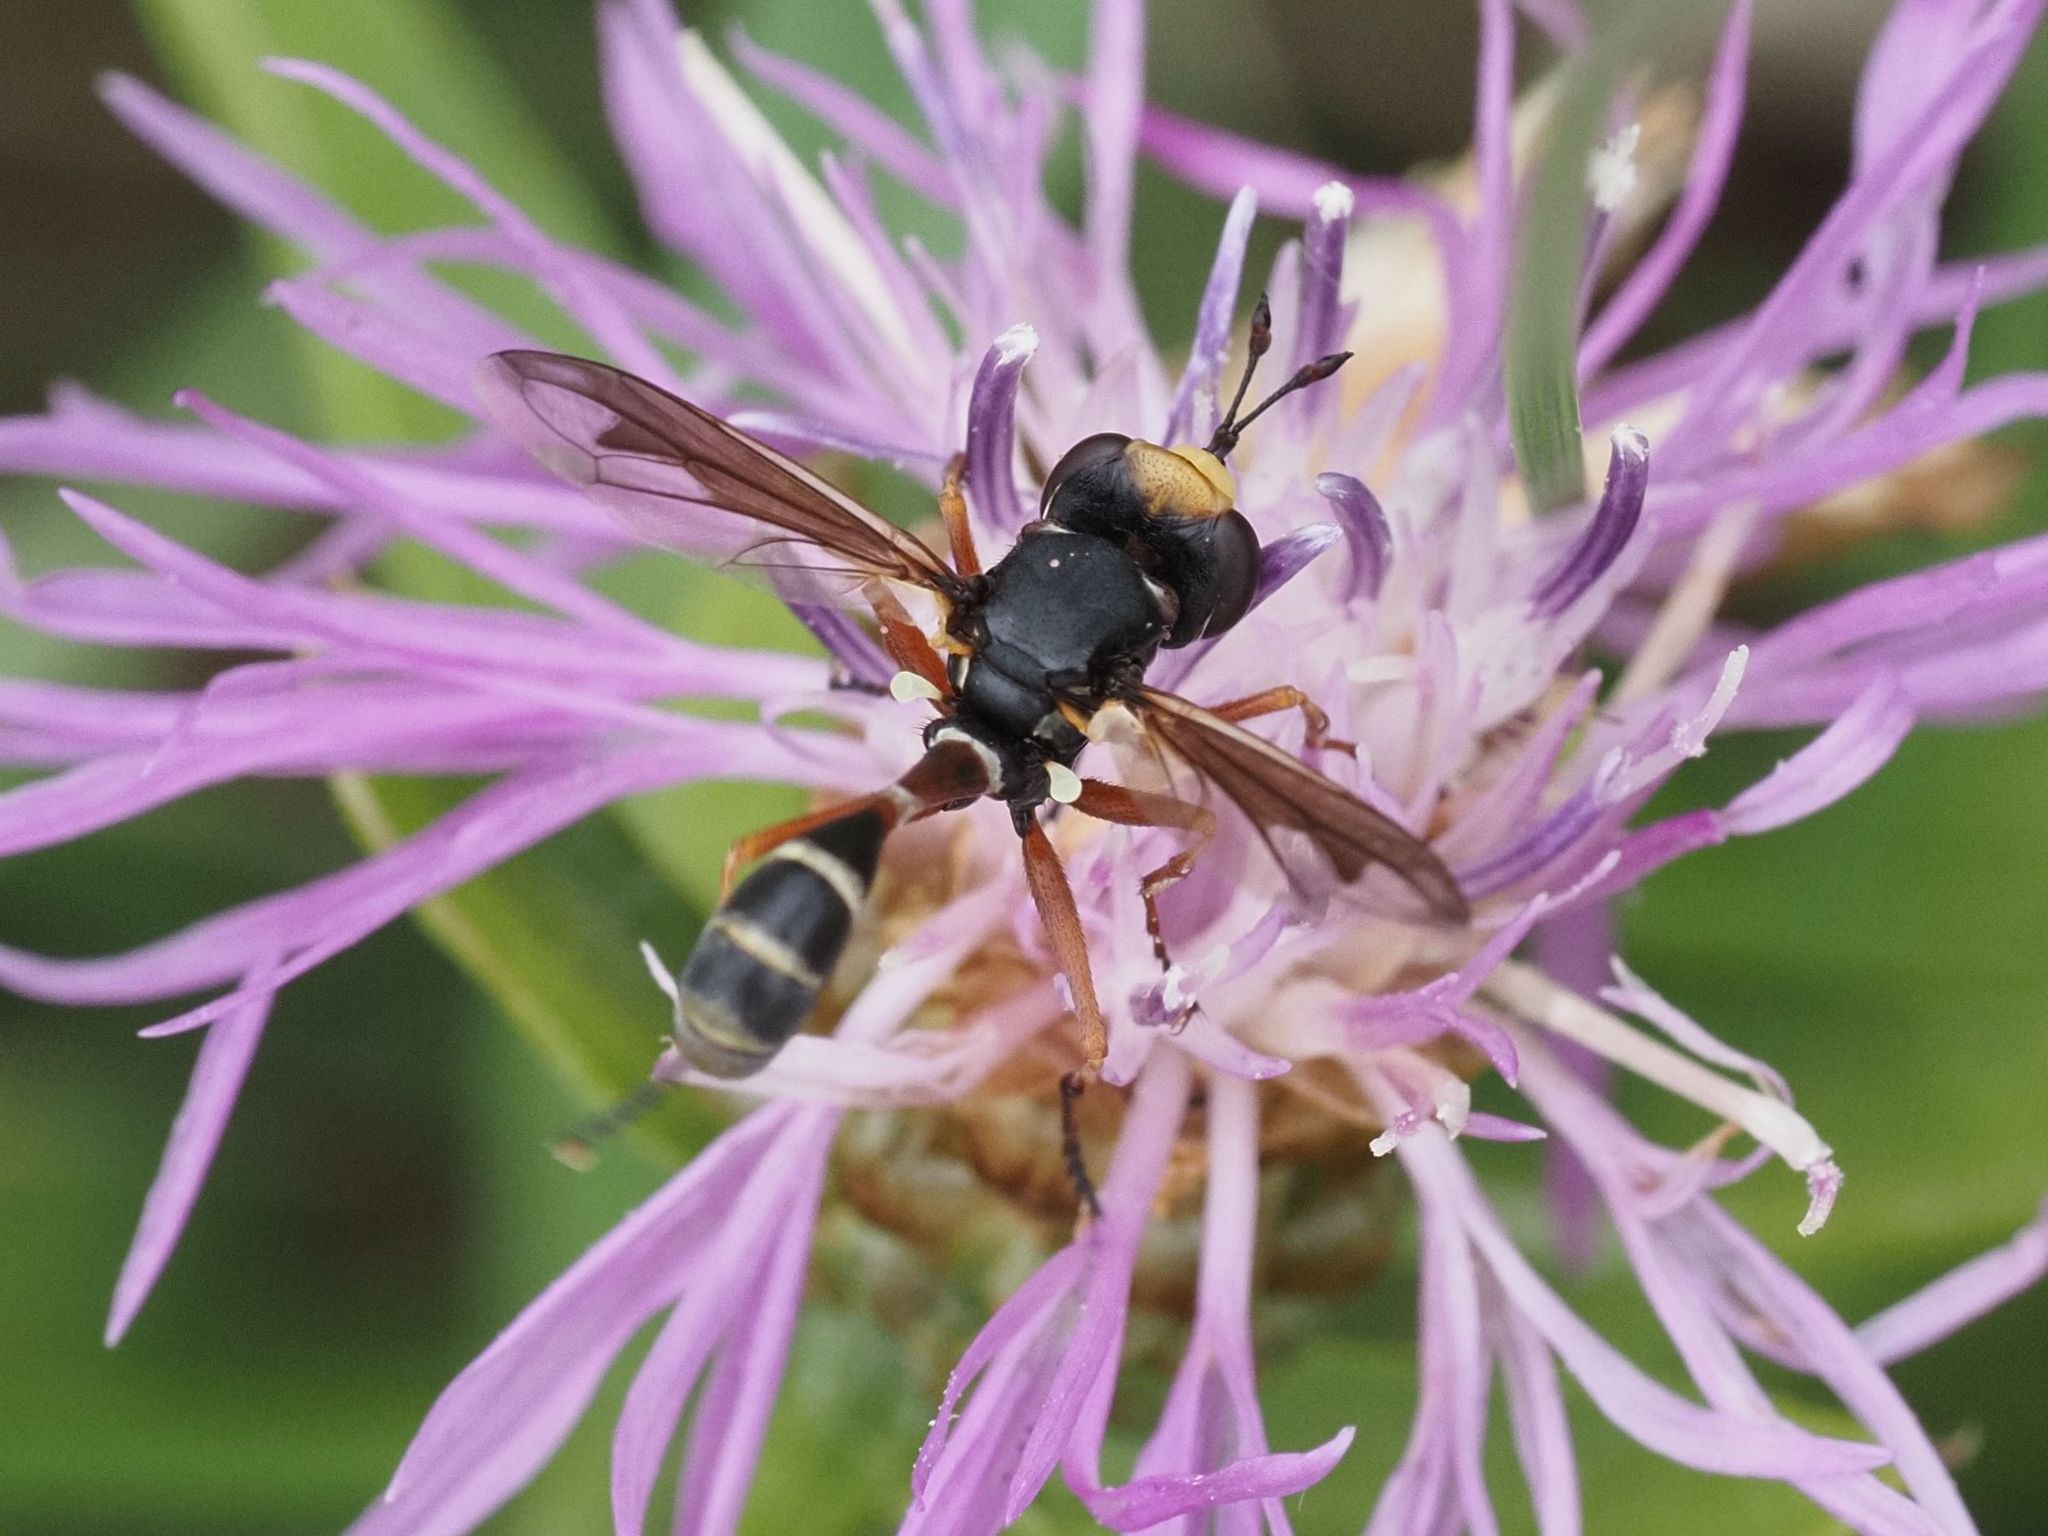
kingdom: Animalia
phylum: Arthropoda
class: Insecta
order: Diptera
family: Conopidae
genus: Physocephala
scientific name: Physocephala vittata
